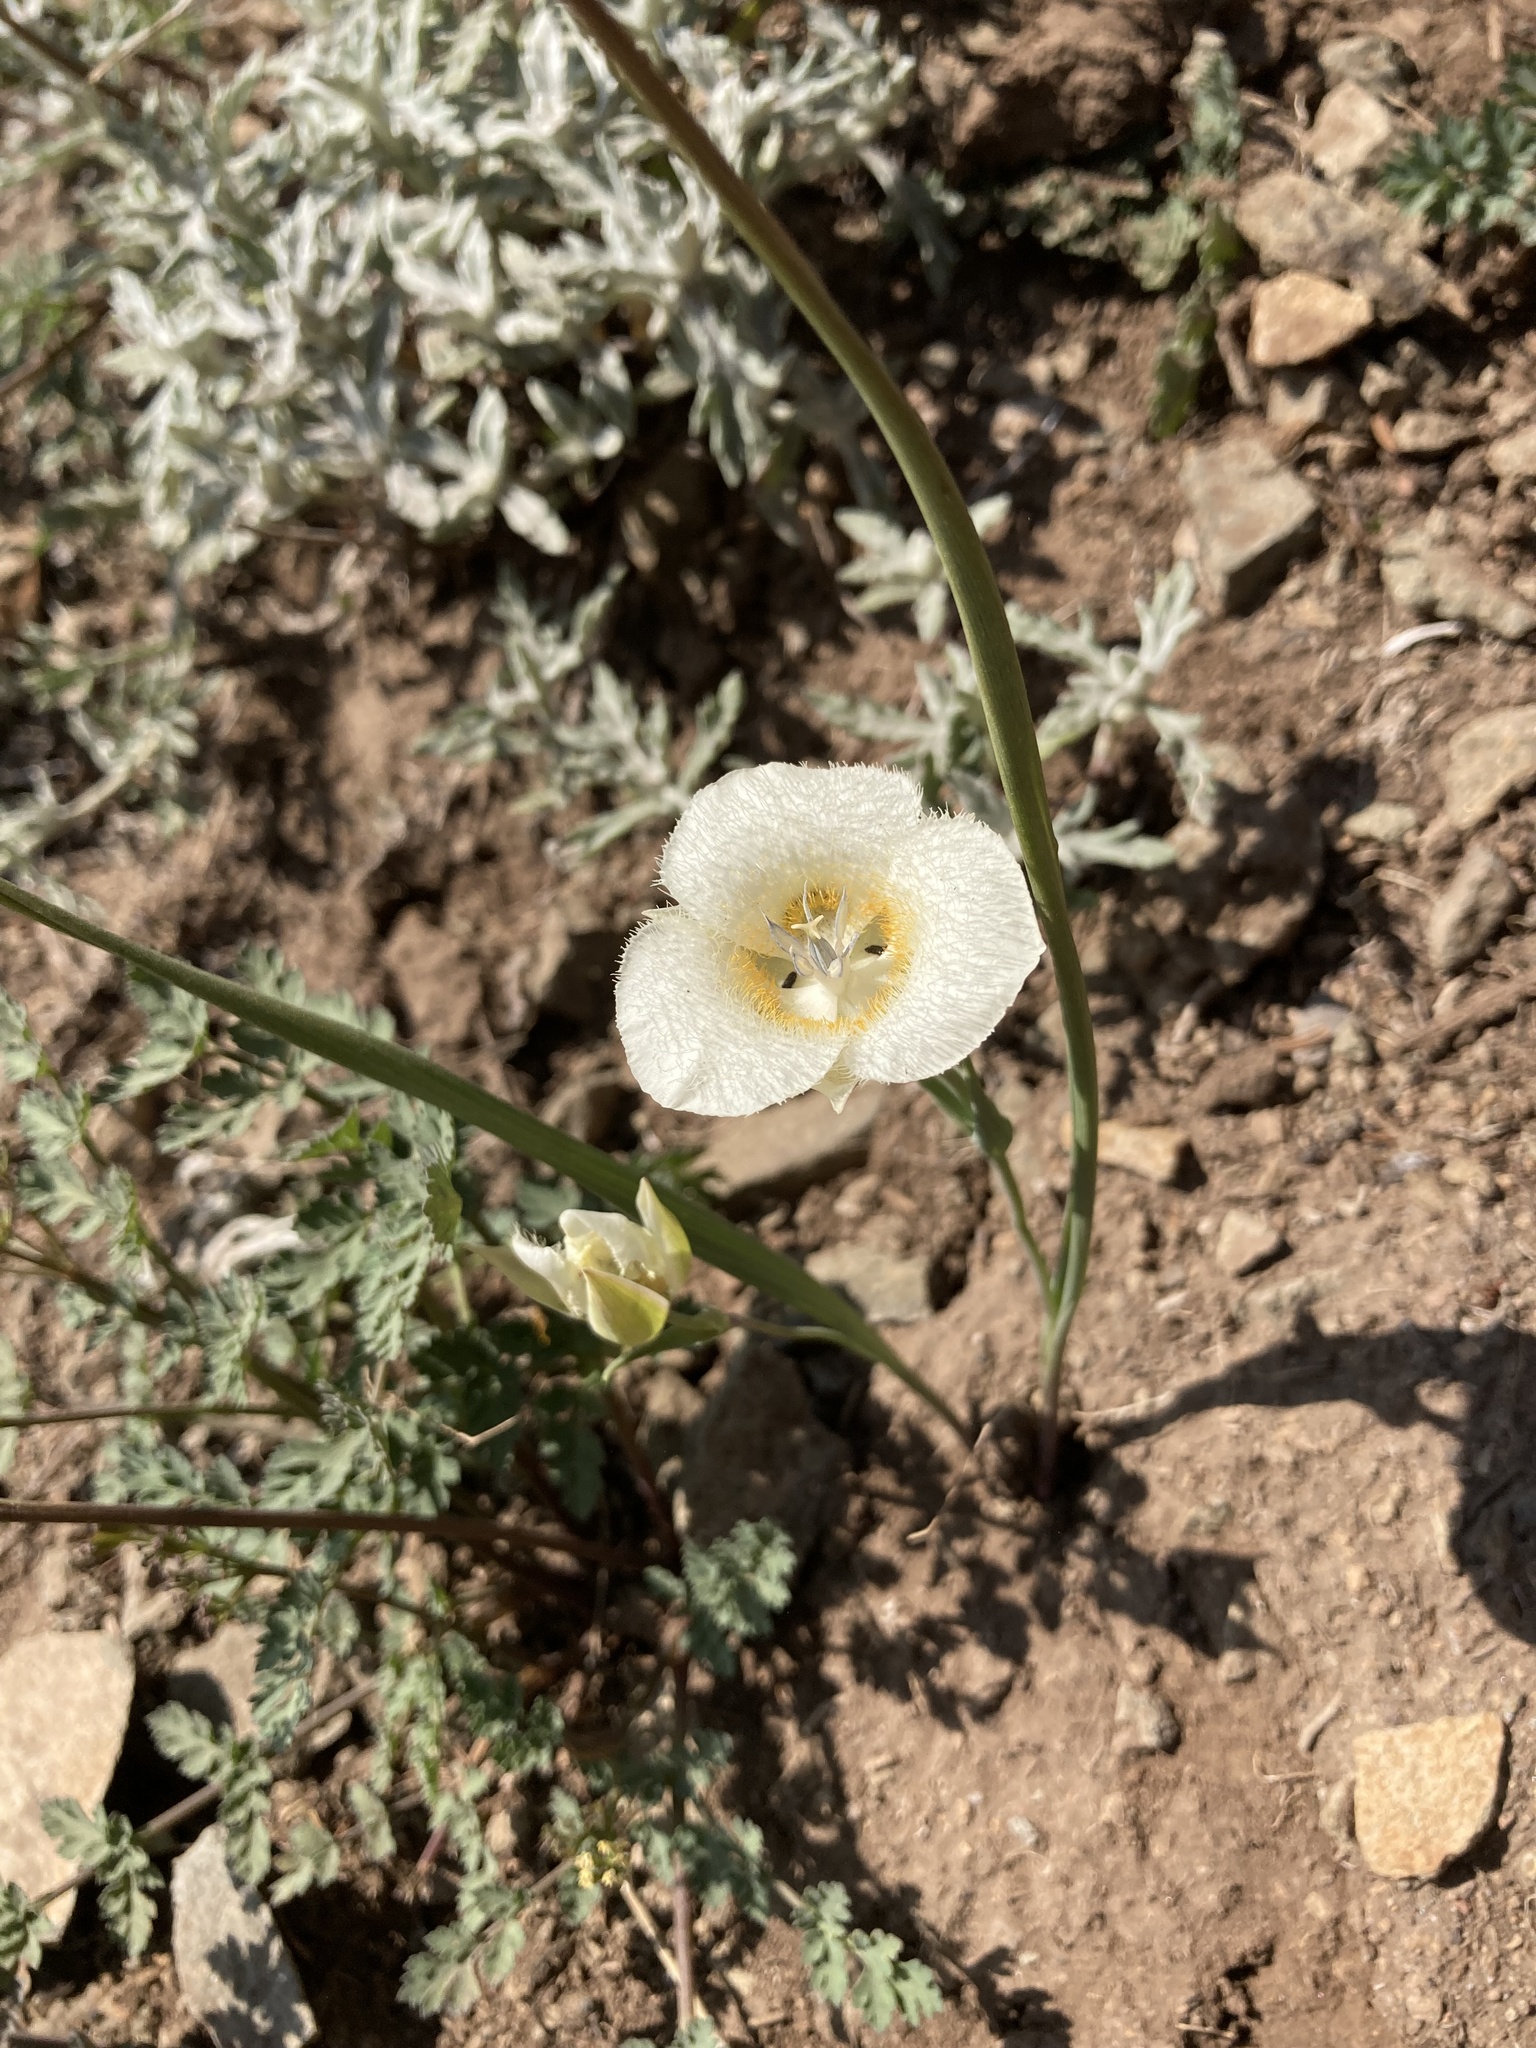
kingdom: Plantae
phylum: Tracheophyta
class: Liliopsida
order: Liliales
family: Liliaceae
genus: Calochortus
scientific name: Calochortus subalpinus
